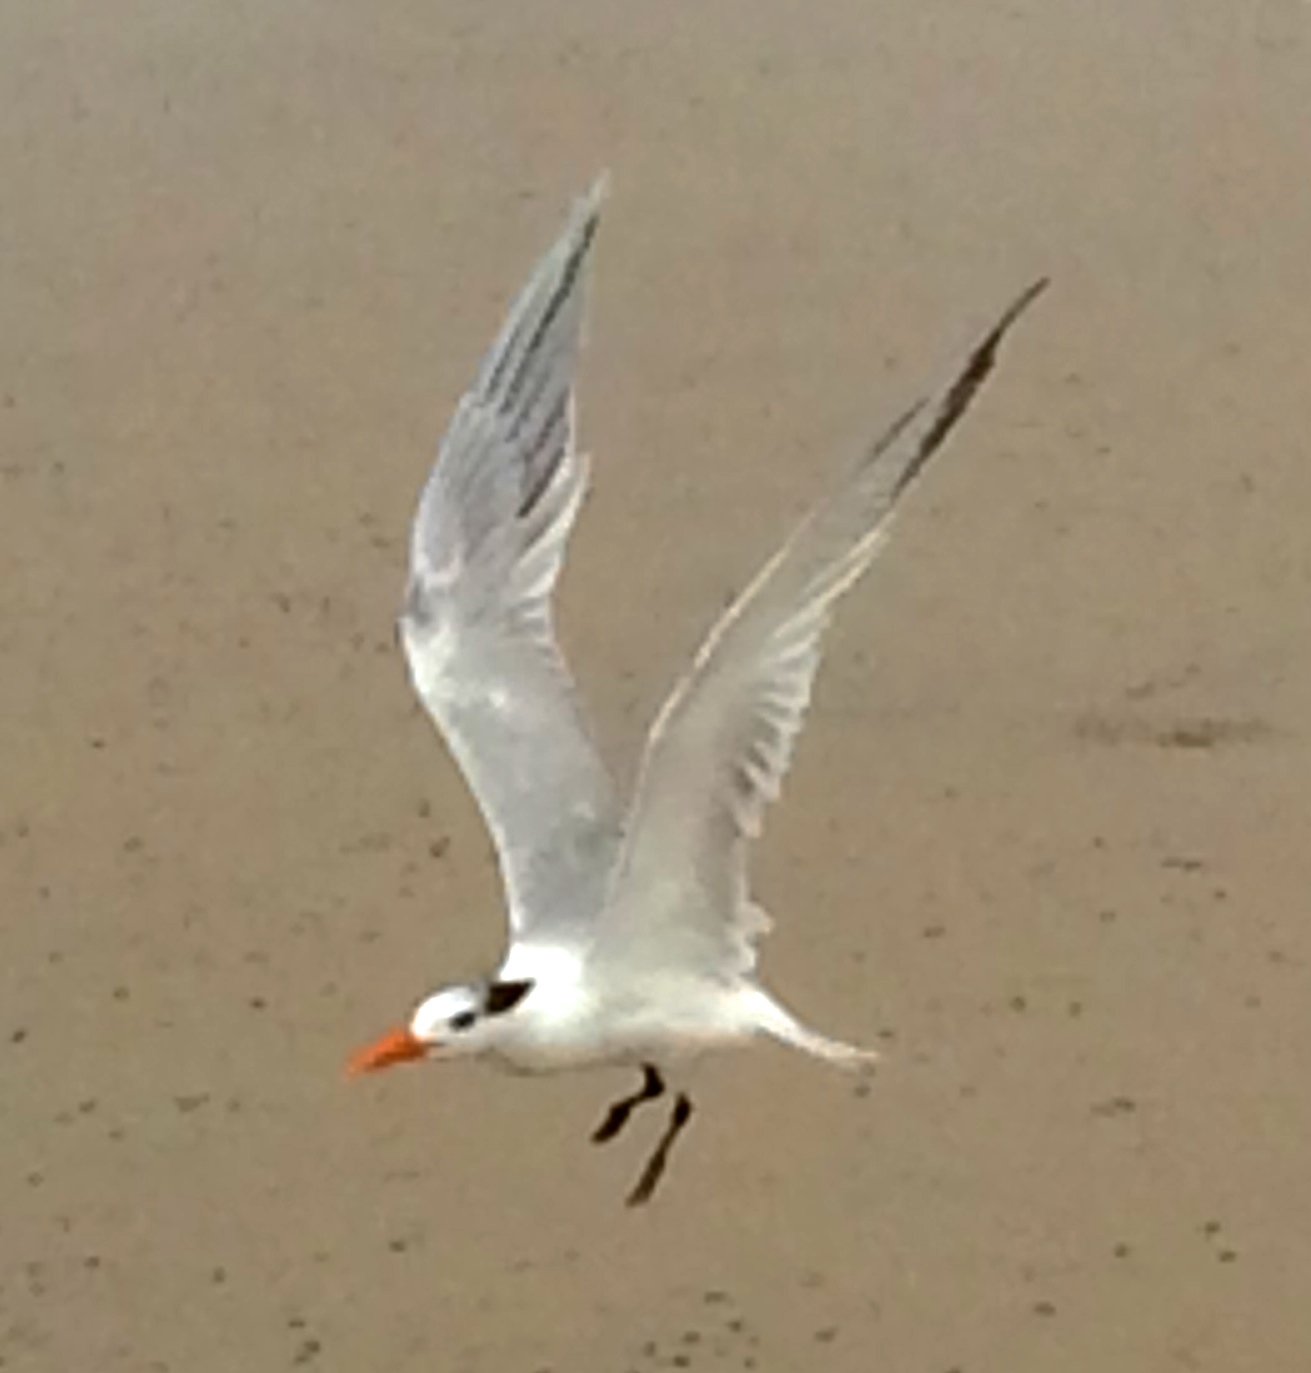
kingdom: Animalia
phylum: Chordata
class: Aves
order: Charadriiformes
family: Laridae
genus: Thalasseus
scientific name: Thalasseus maximus
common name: Royal tern
